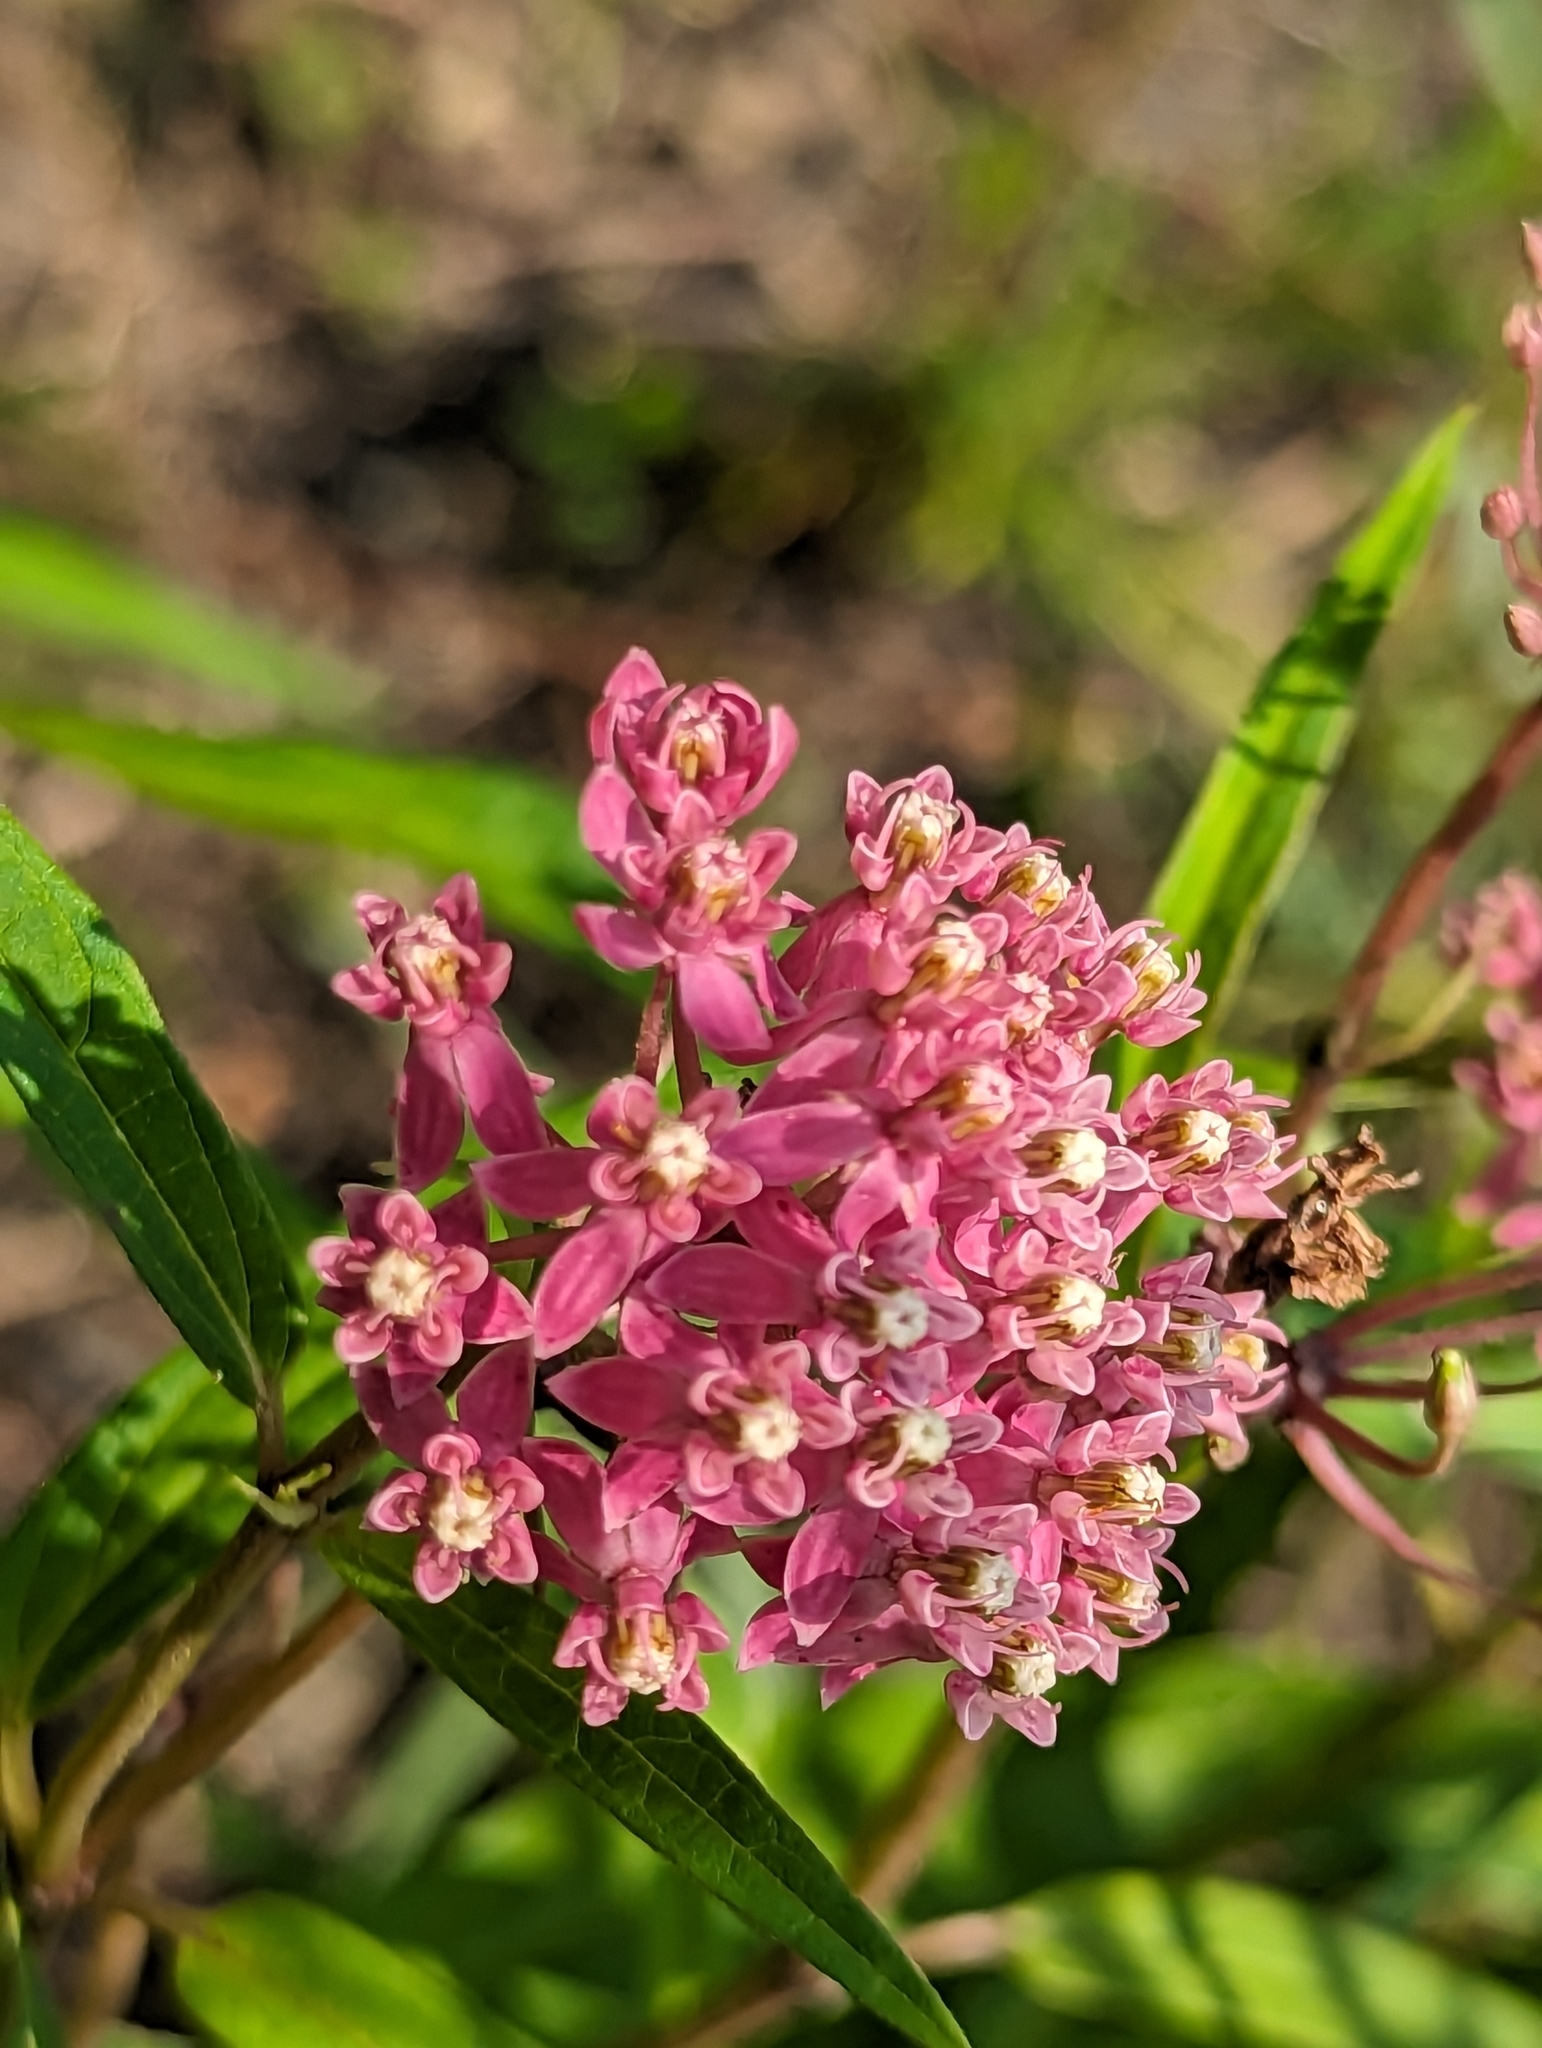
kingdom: Plantae
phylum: Tracheophyta
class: Magnoliopsida
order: Gentianales
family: Apocynaceae
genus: Asclepias
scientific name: Asclepias incarnata
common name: Swamp milkweed
